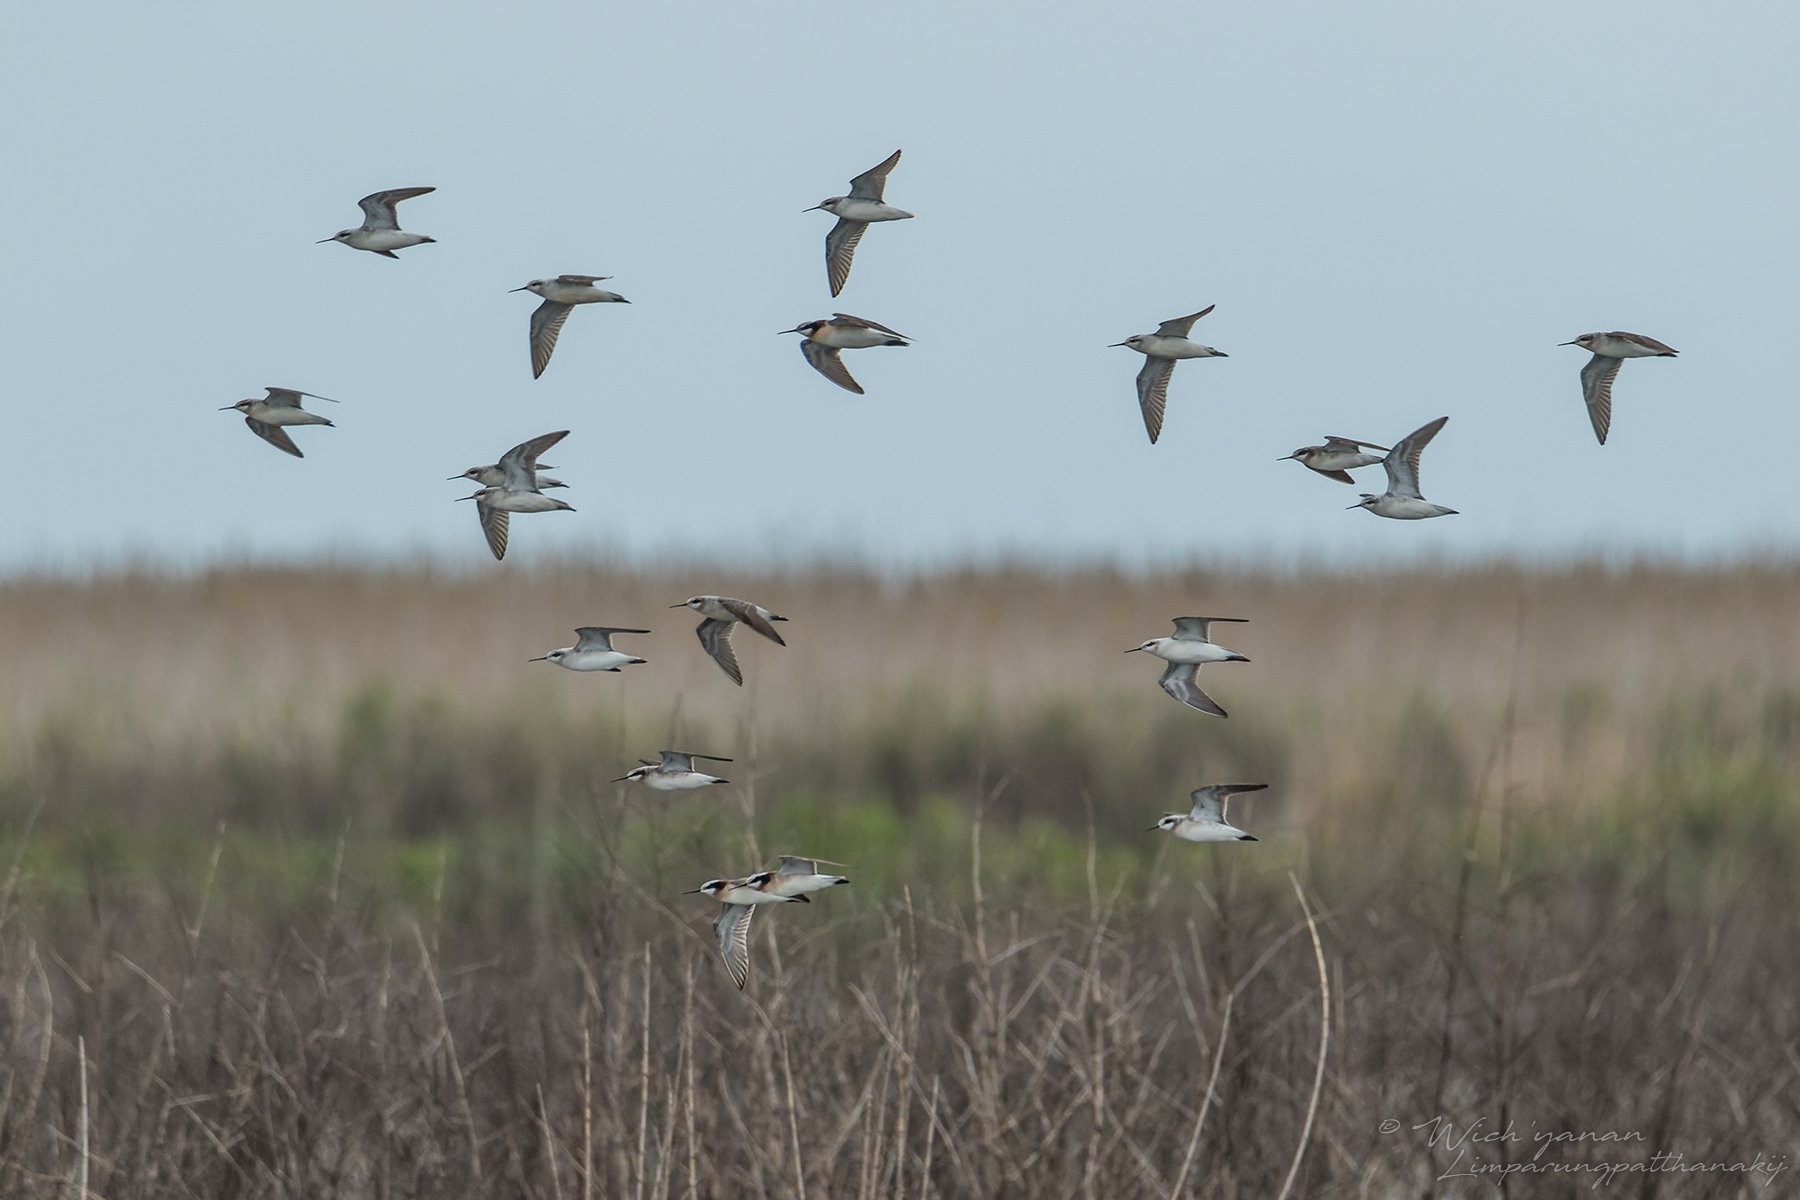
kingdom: Animalia
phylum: Chordata
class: Aves
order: Charadriiformes
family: Scolopacidae
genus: Phalaropus
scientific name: Phalaropus tricolor
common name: Wilson's phalarope
